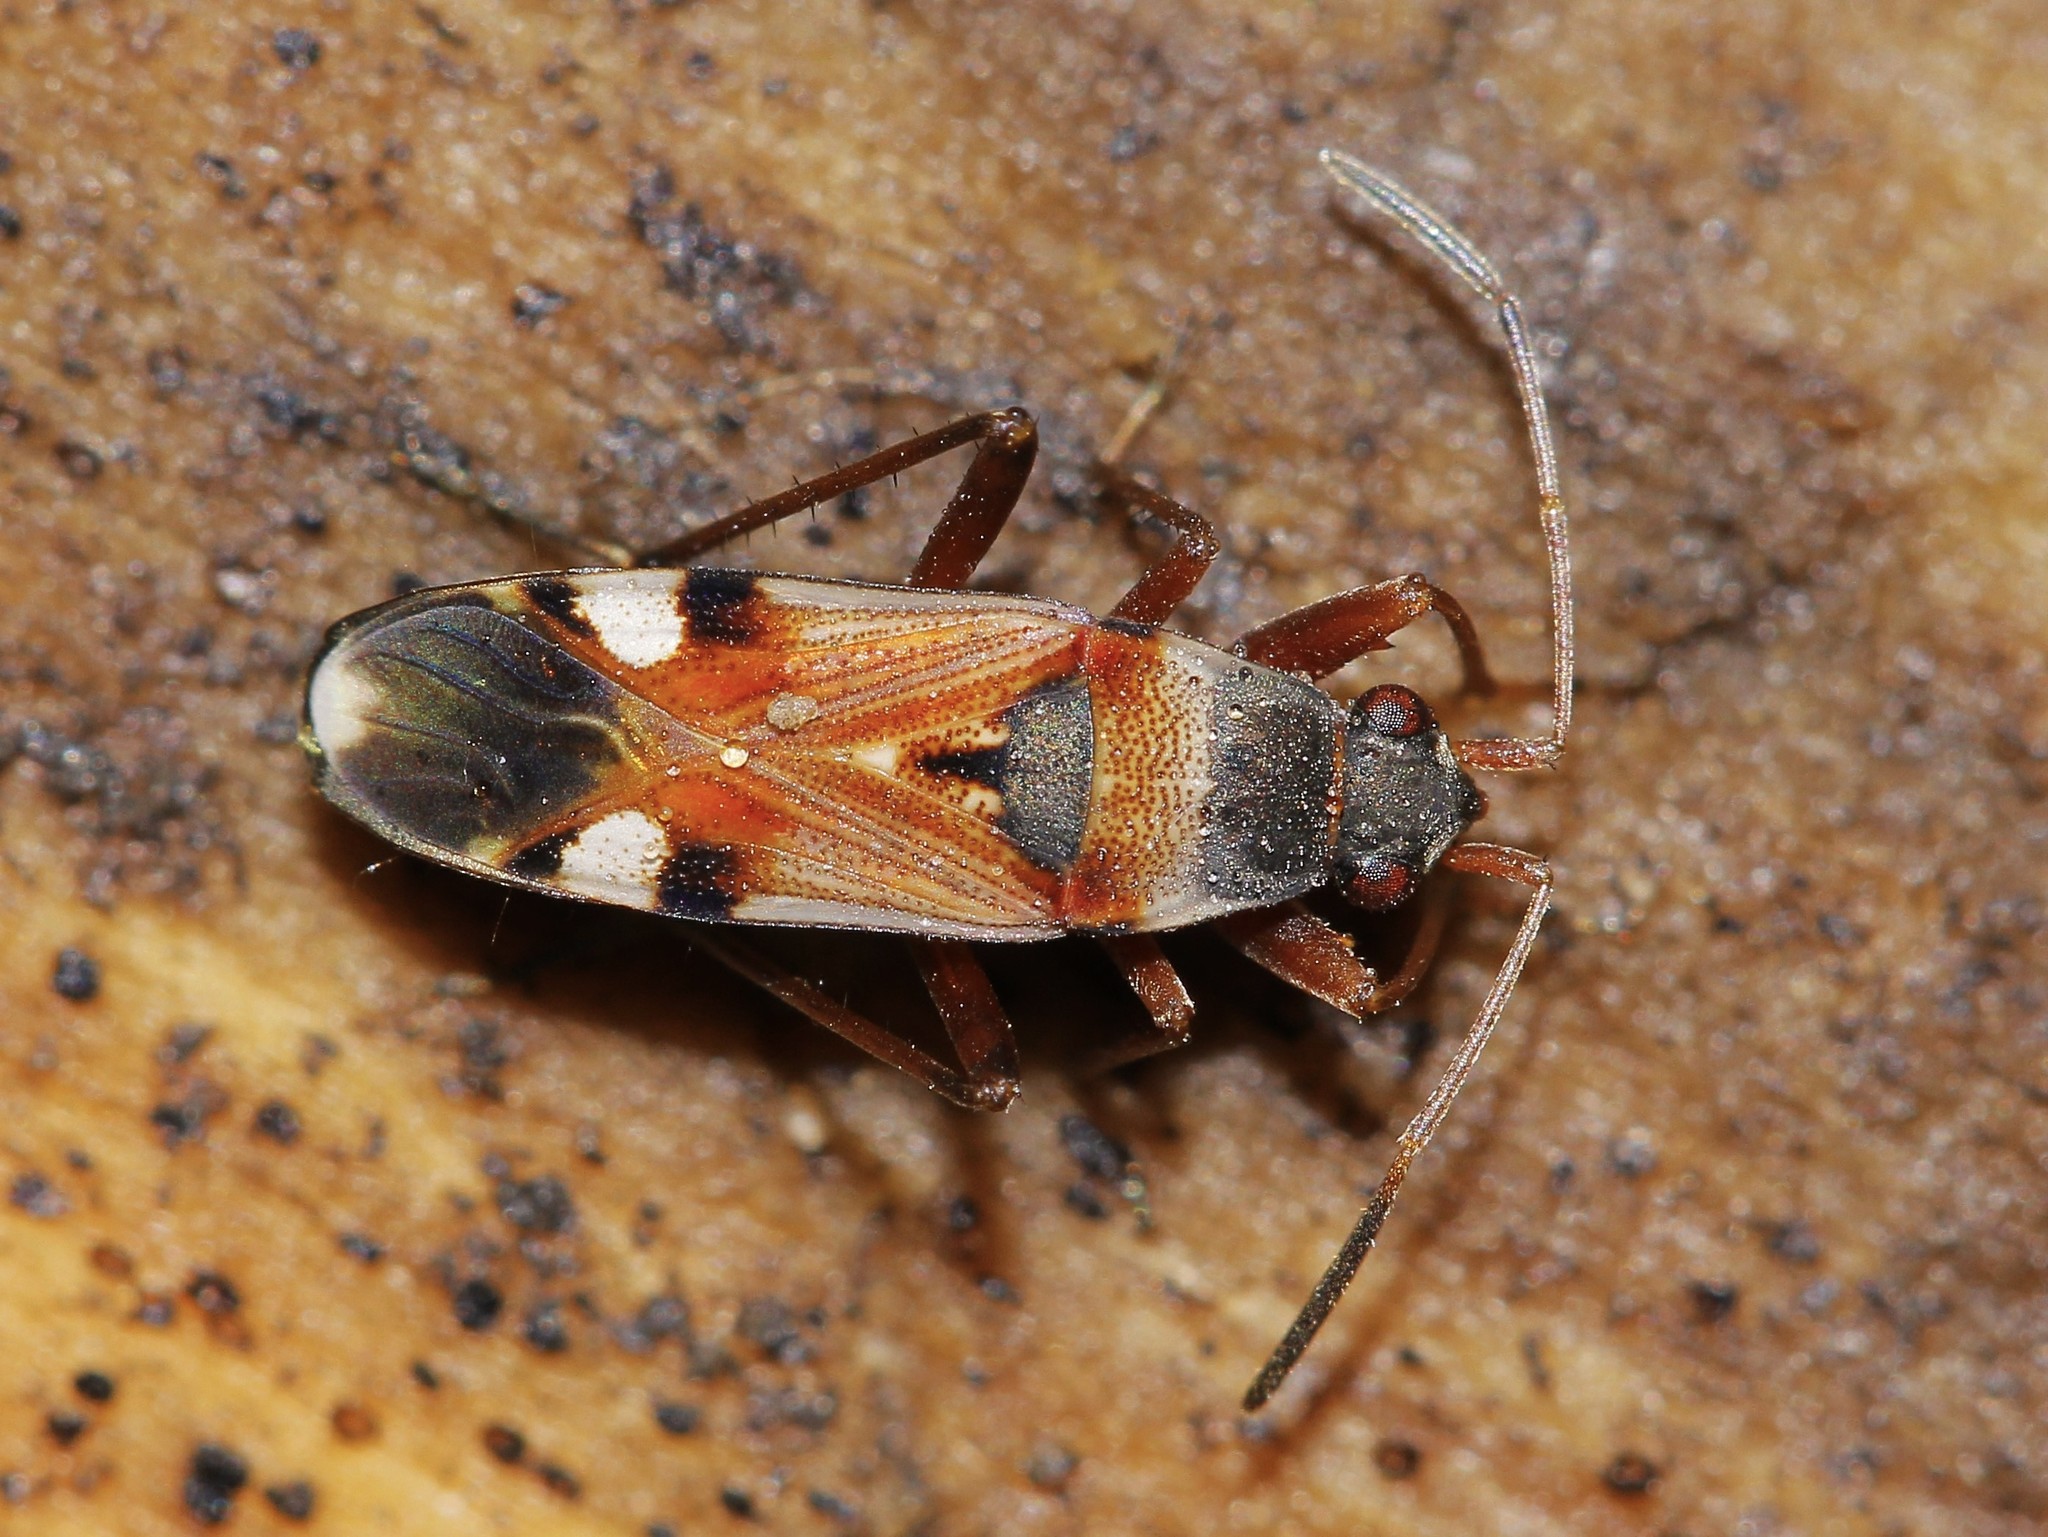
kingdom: Animalia
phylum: Arthropoda
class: Insecta
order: Hemiptera
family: Rhyparochromidae
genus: Beosus
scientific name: Beosus quadripunctatus
